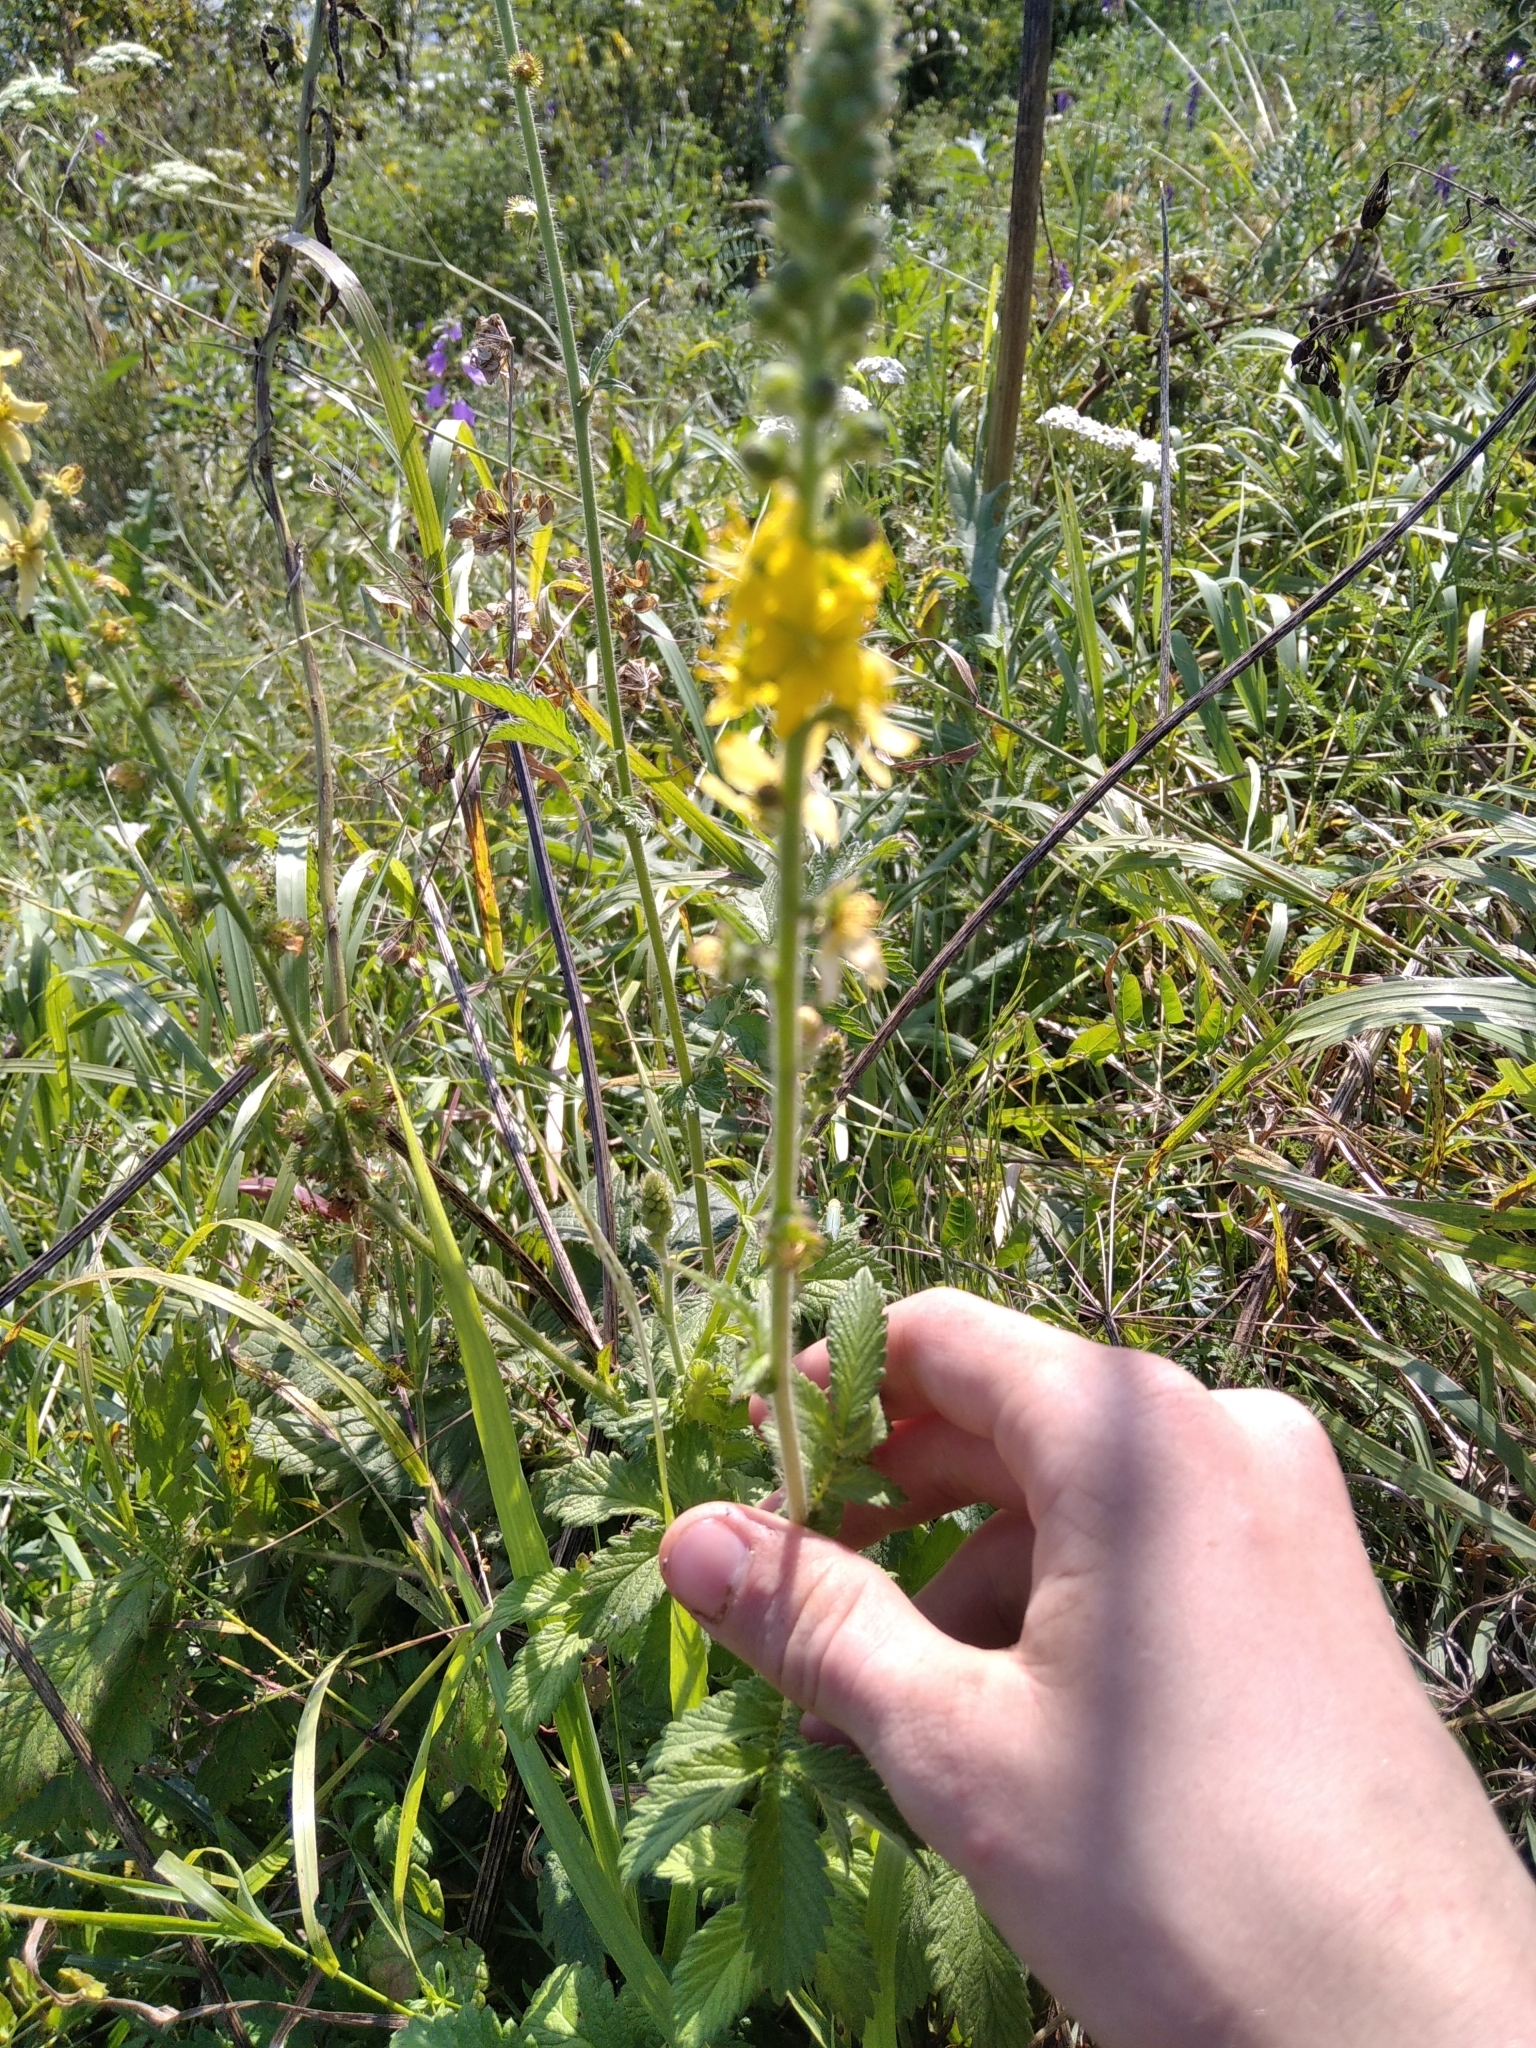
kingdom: Plantae
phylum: Tracheophyta
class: Magnoliopsida
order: Rosales
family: Rosaceae
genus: Agrimonia
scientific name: Agrimonia eupatoria
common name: Agrimony
